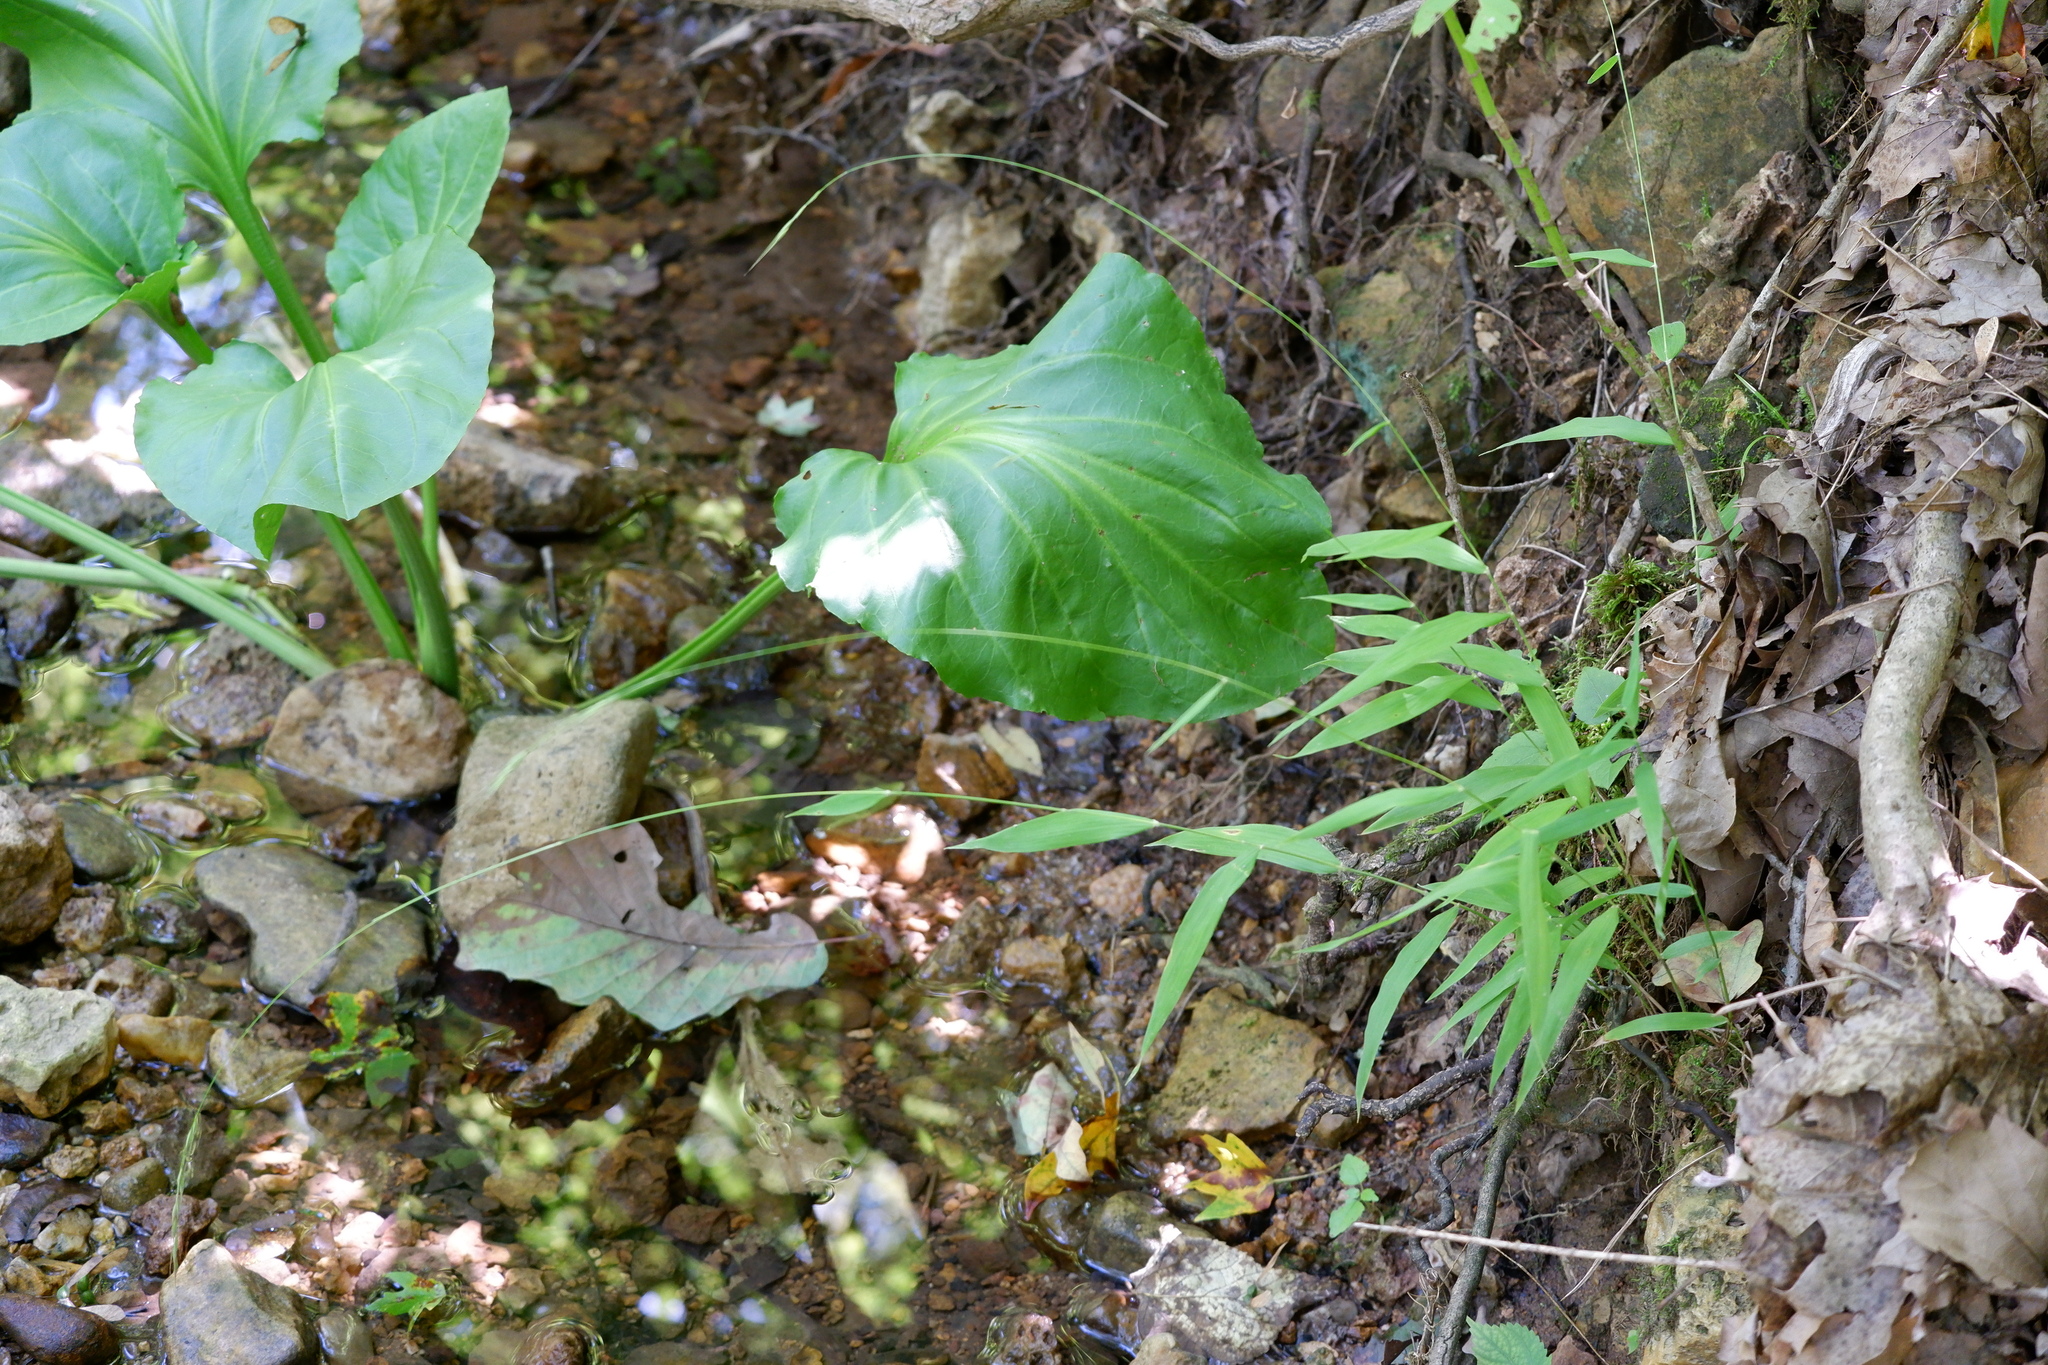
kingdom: Plantae
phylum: Tracheophyta
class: Liliopsida
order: Poales
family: Poaceae
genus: Brachyelytrum
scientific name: Brachyelytrum erectum
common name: Bearded shorthusk
